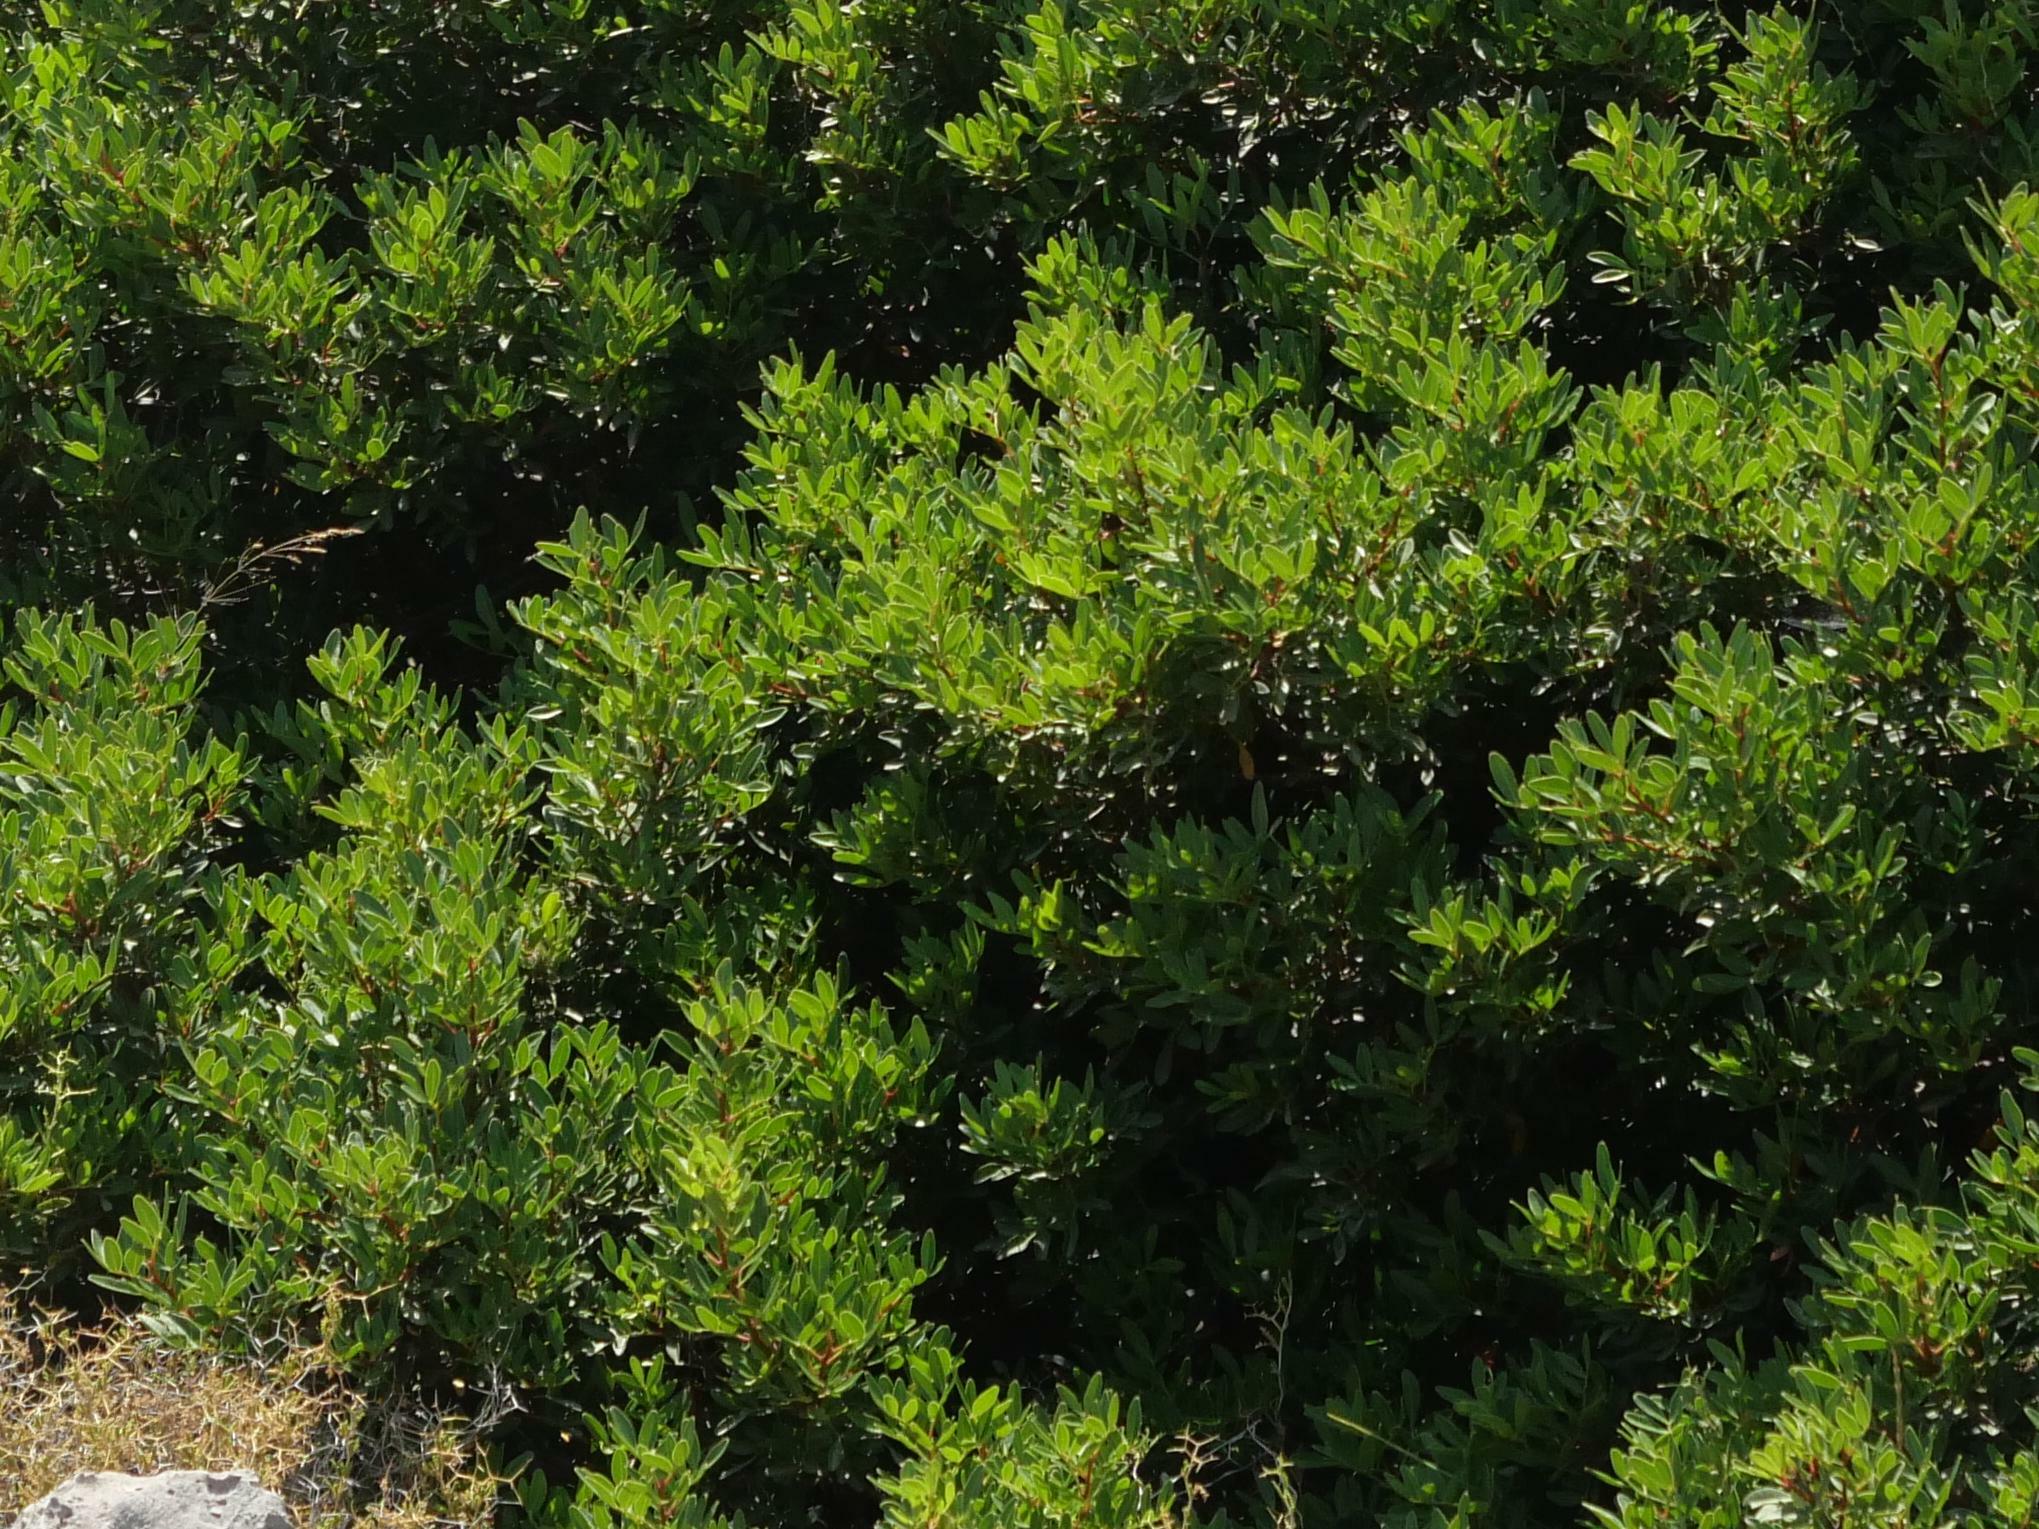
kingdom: Plantae
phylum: Tracheophyta
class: Magnoliopsida
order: Sapindales
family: Anacardiaceae
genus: Pistacia
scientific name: Pistacia lentiscus
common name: Lentisk
